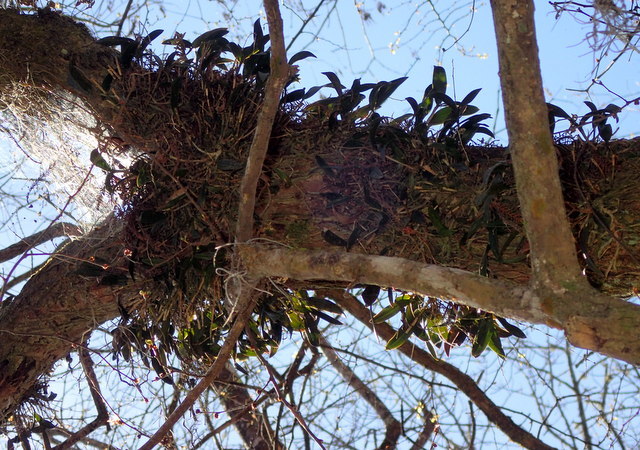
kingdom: Plantae
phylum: Tracheophyta
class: Liliopsida
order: Asparagales
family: Orchidaceae
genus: Epidendrum
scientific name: Epidendrum conopseum
